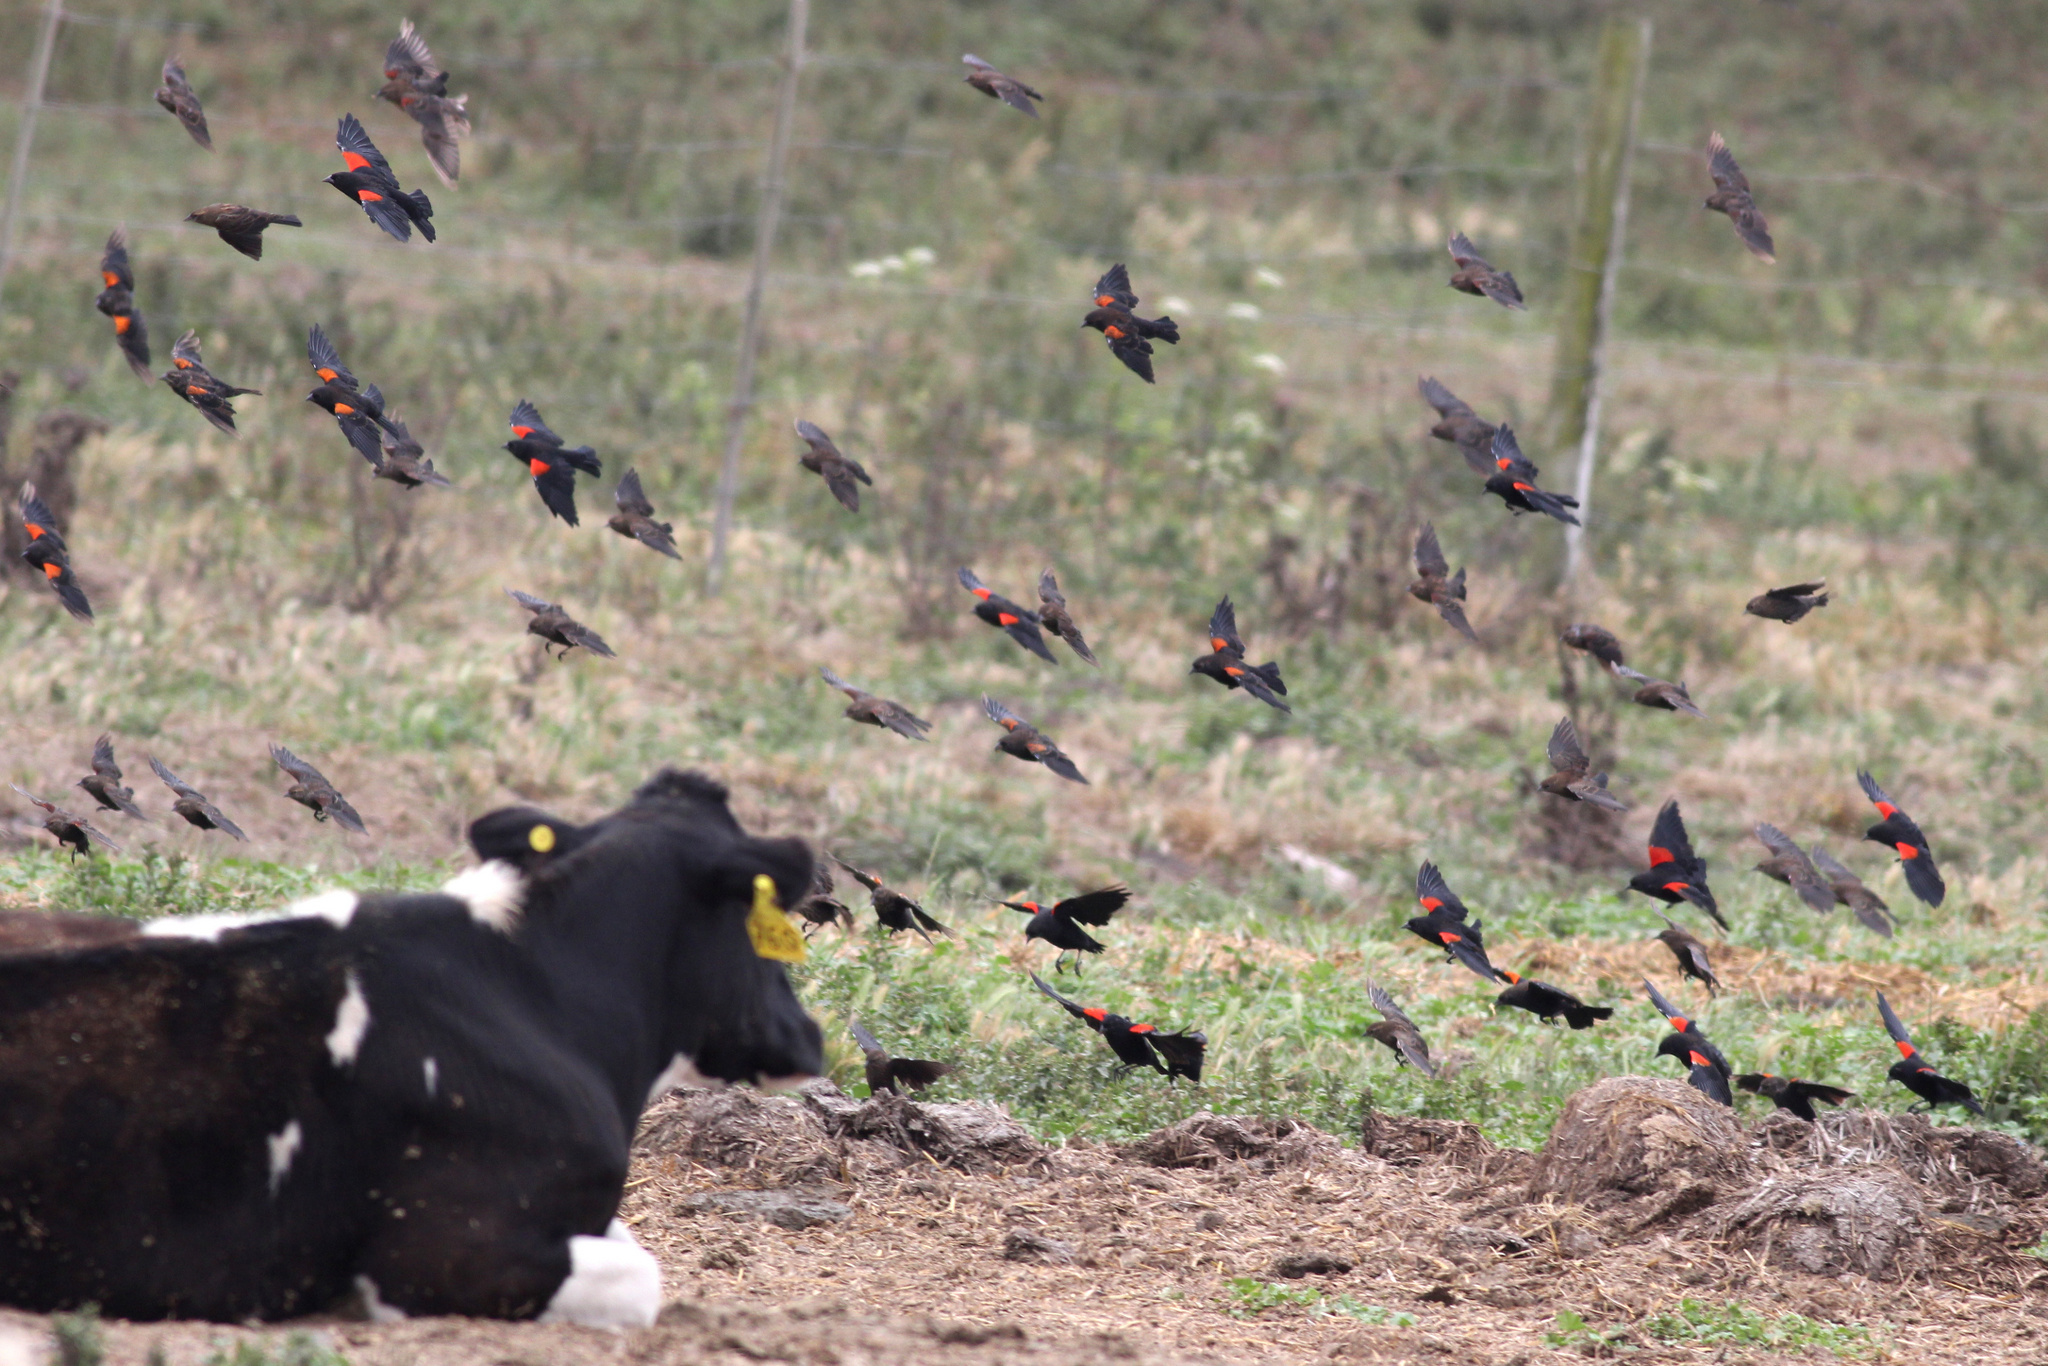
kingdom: Animalia
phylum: Chordata
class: Aves
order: Passeriformes
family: Icteridae
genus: Agelaius
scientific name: Agelaius phoeniceus
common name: Red-winged blackbird
